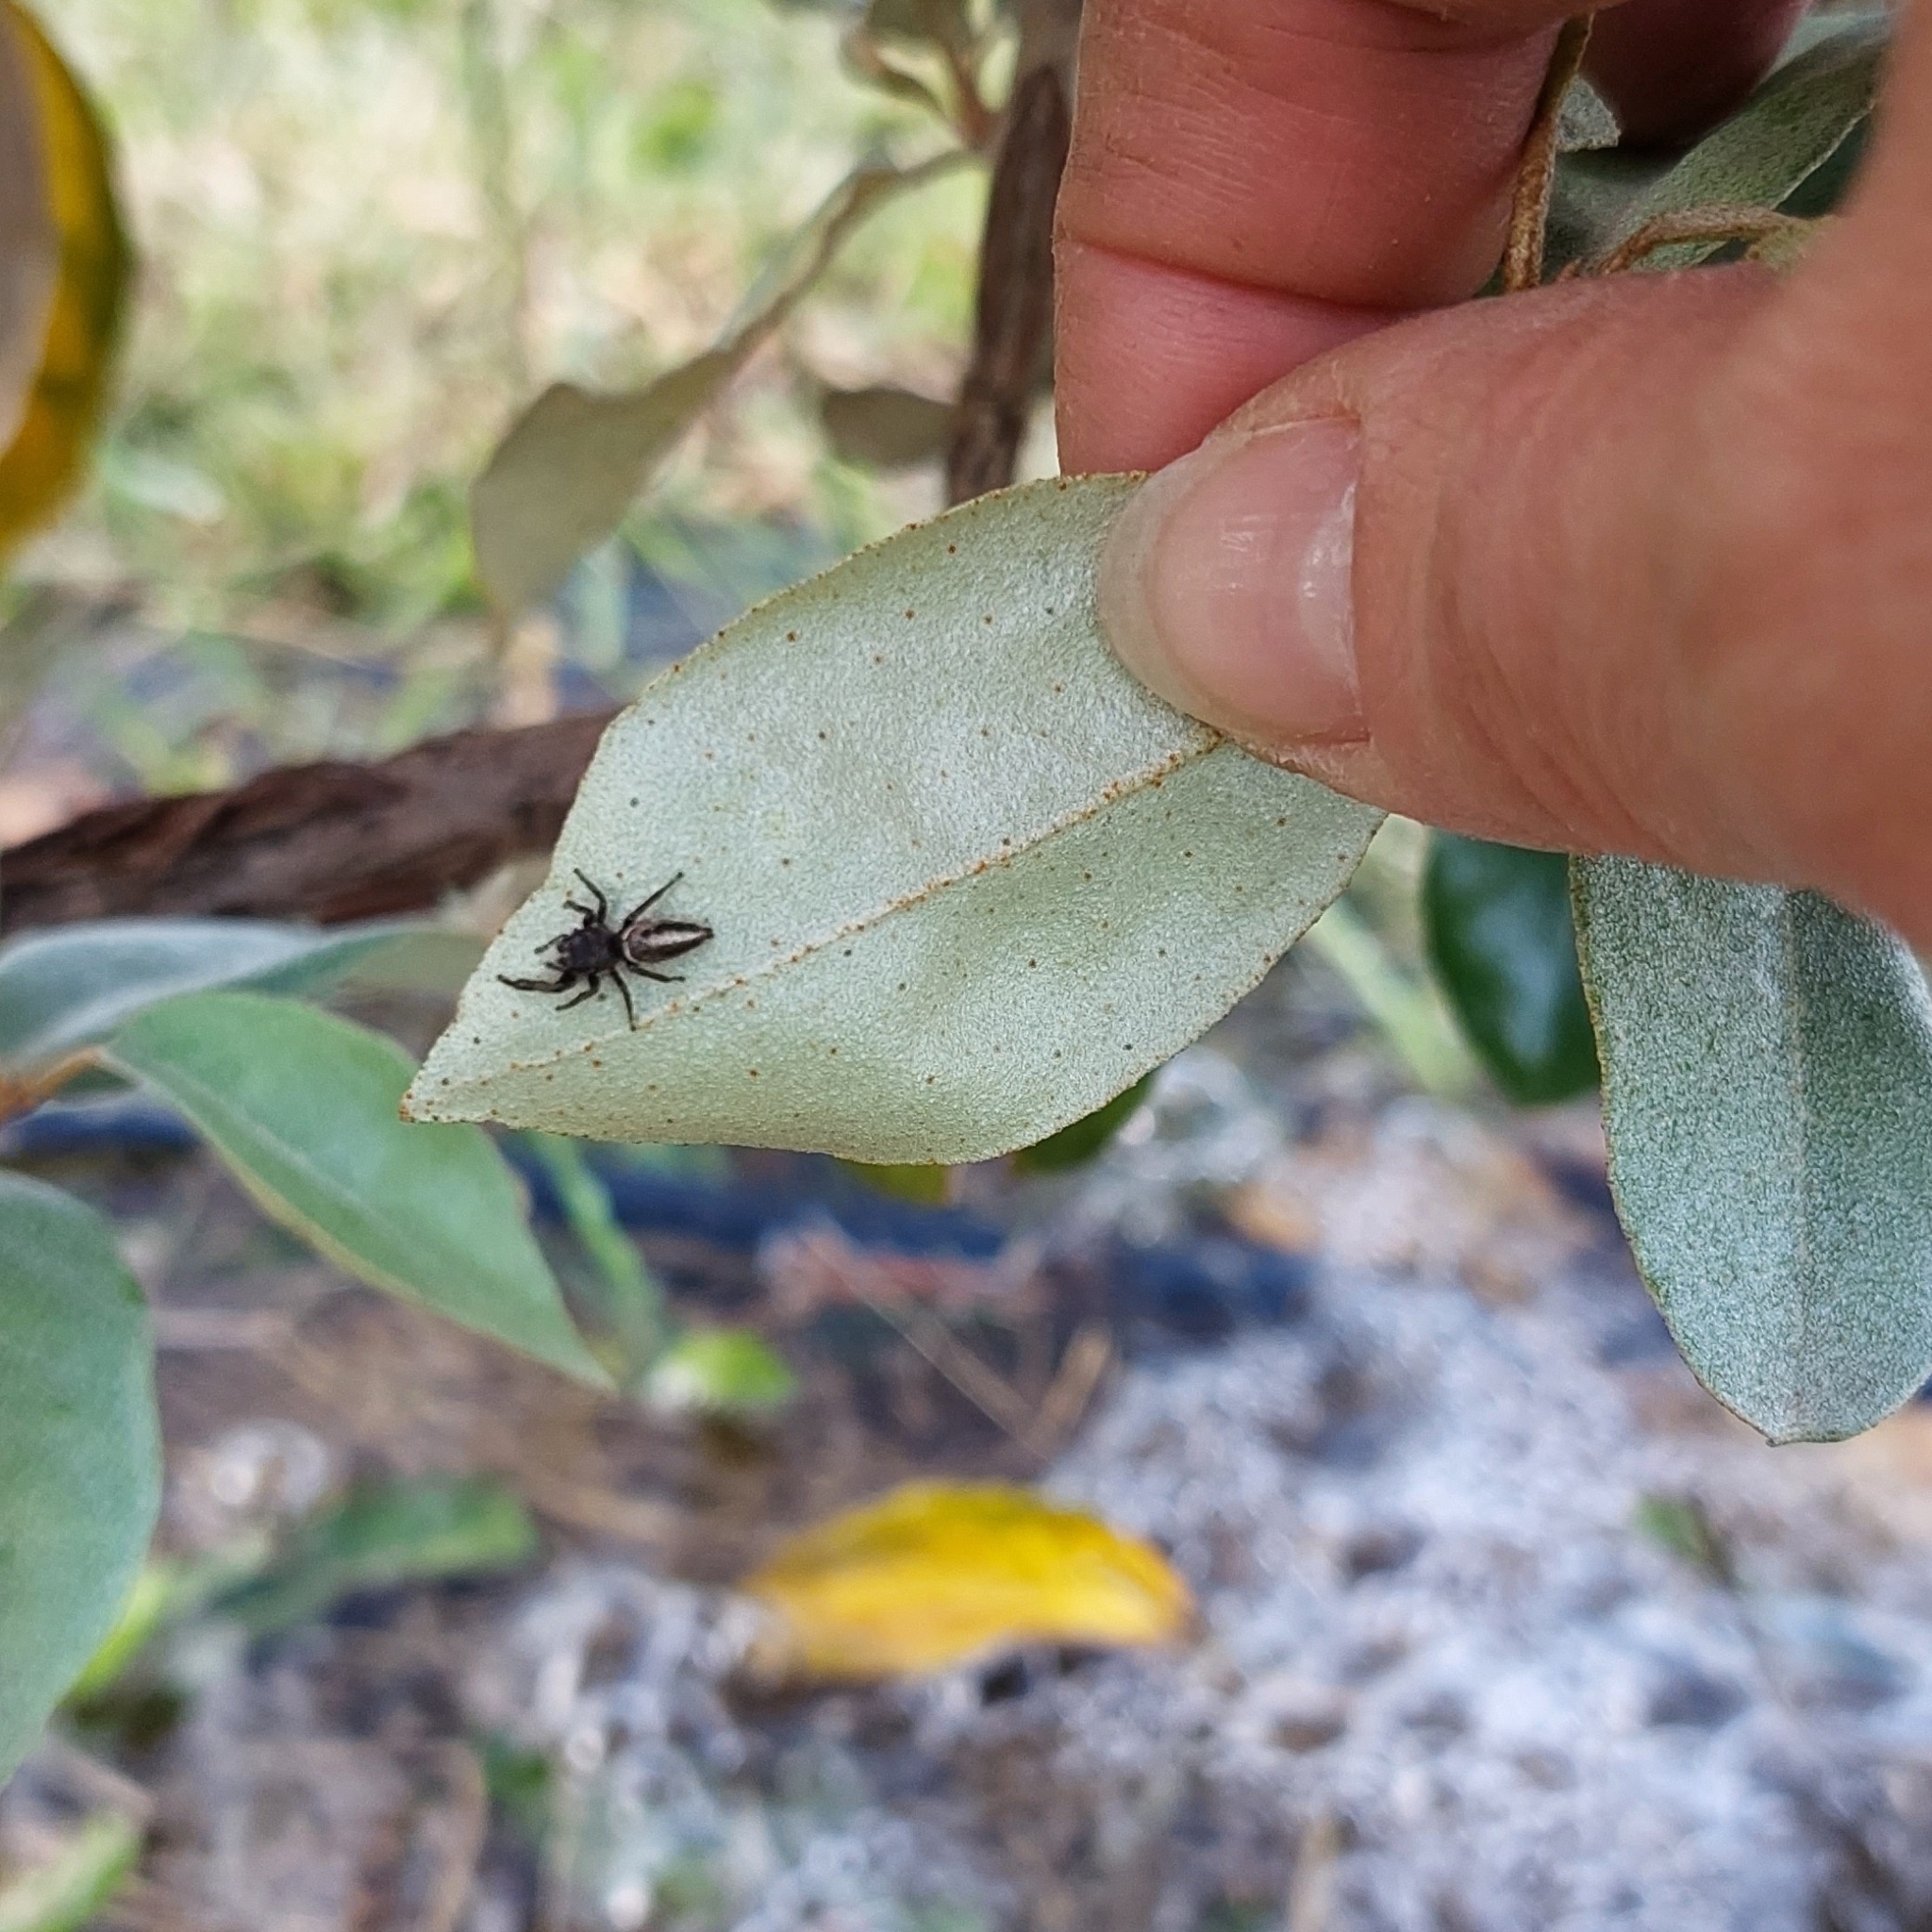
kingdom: Animalia
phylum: Arthropoda
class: Arachnida
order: Araneae
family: Salticidae
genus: Dendryphantes
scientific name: Dendryphantes mordax
